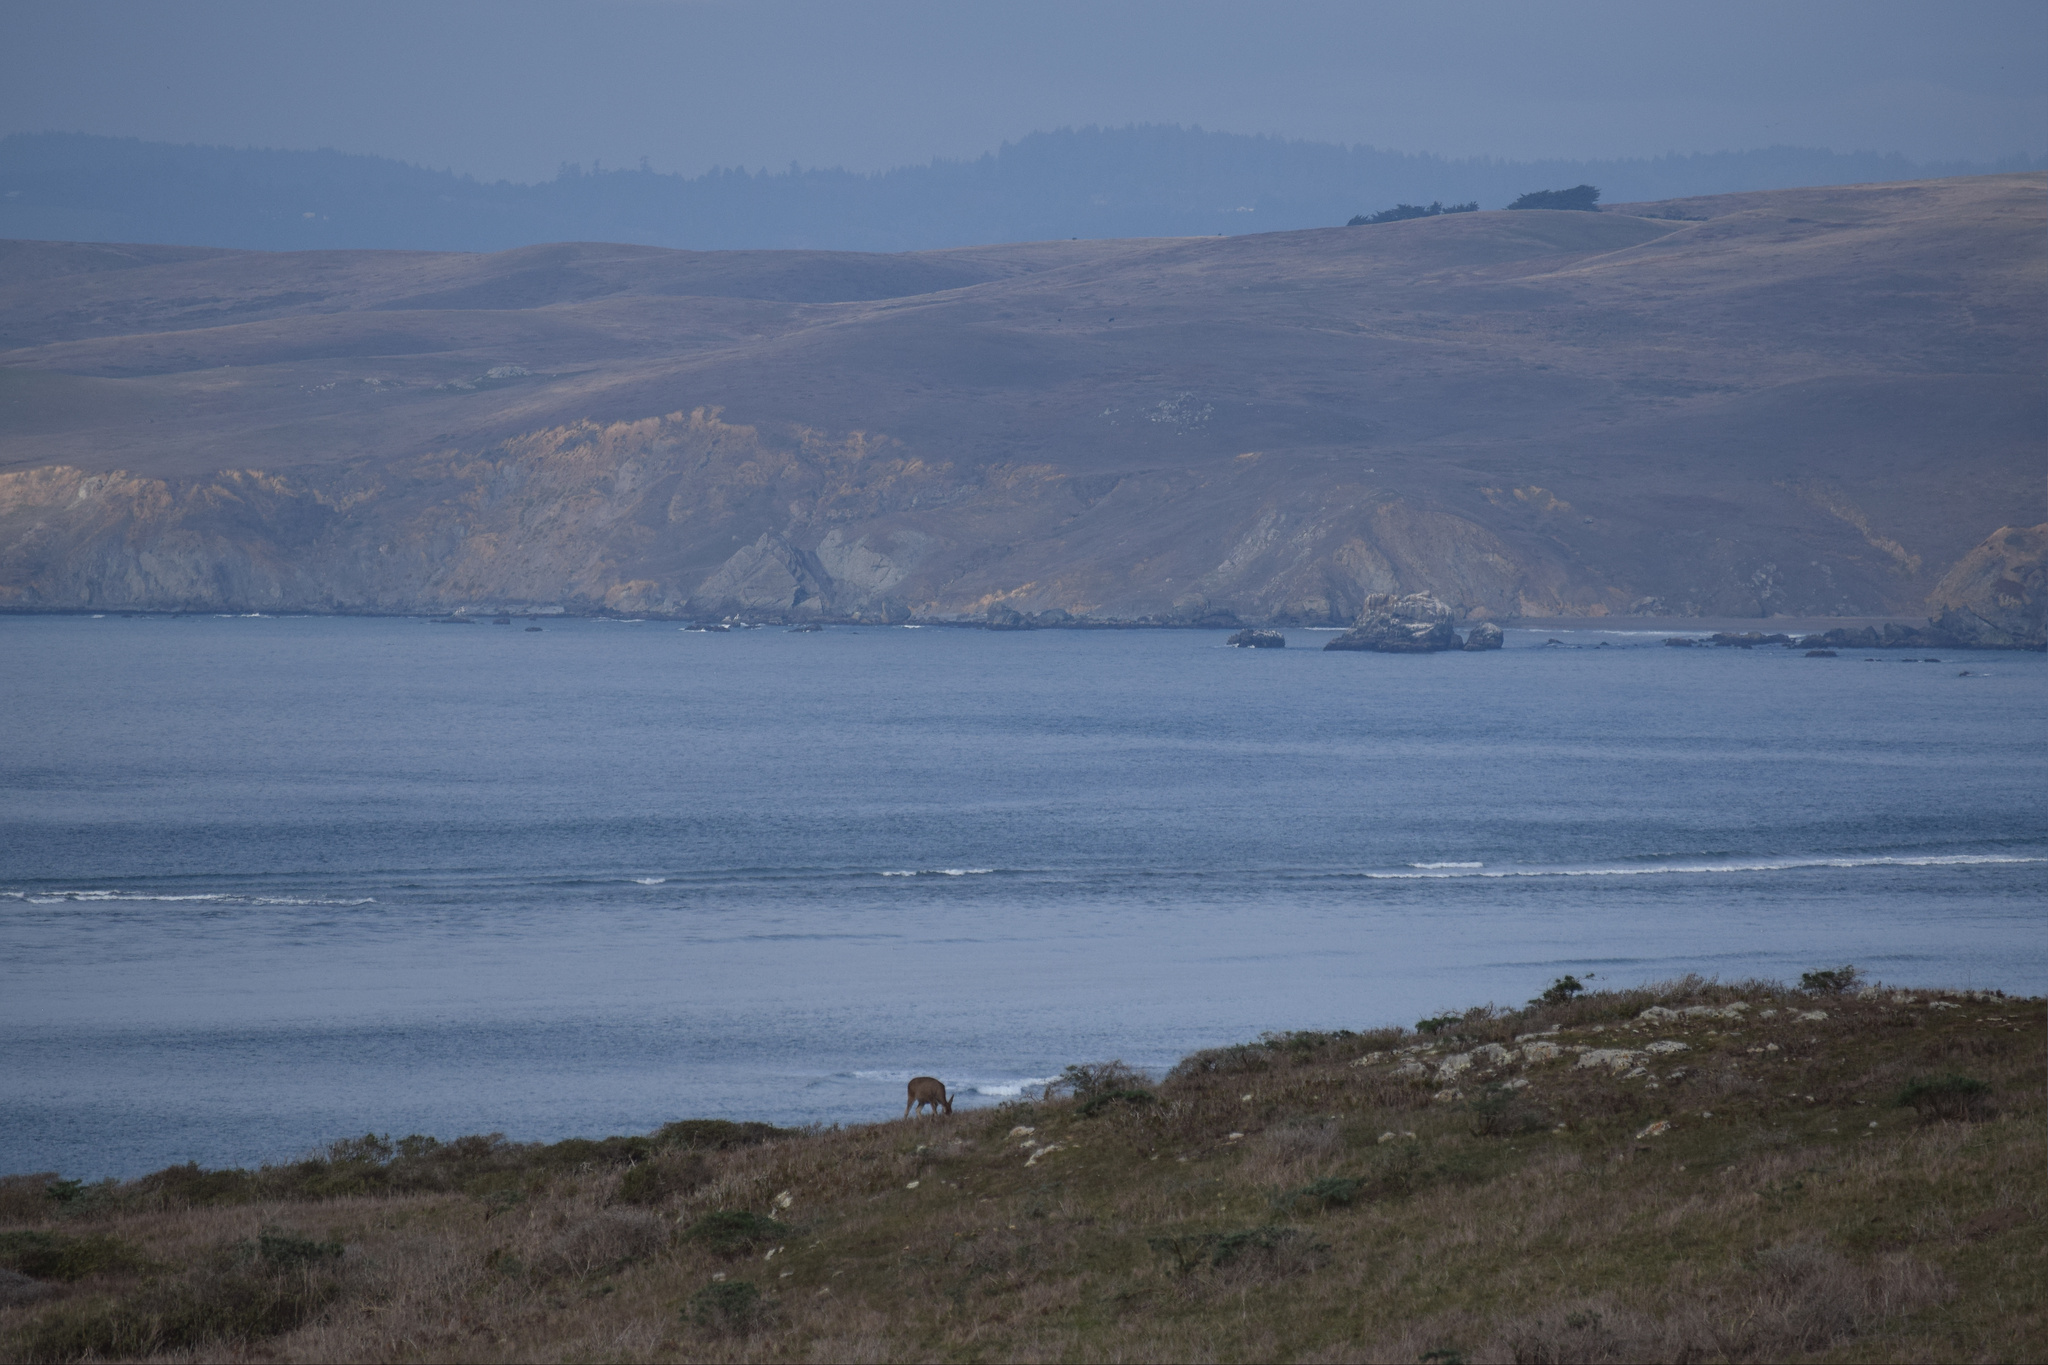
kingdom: Animalia
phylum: Chordata
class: Mammalia
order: Artiodactyla
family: Cervidae
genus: Odocoileus
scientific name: Odocoileus hemionus
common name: Mule deer
